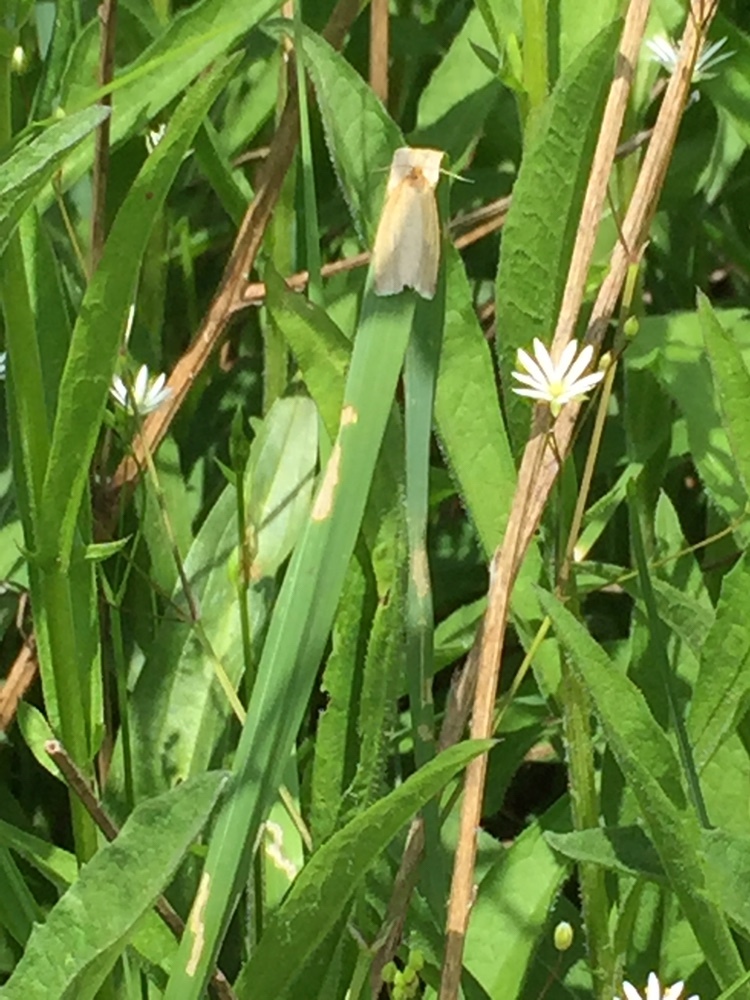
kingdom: Animalia
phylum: Arthropoda
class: Insecta
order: Lepidoptera
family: Tortricidae
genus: Aphelia
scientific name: Aphelia Zelotherses paleana
